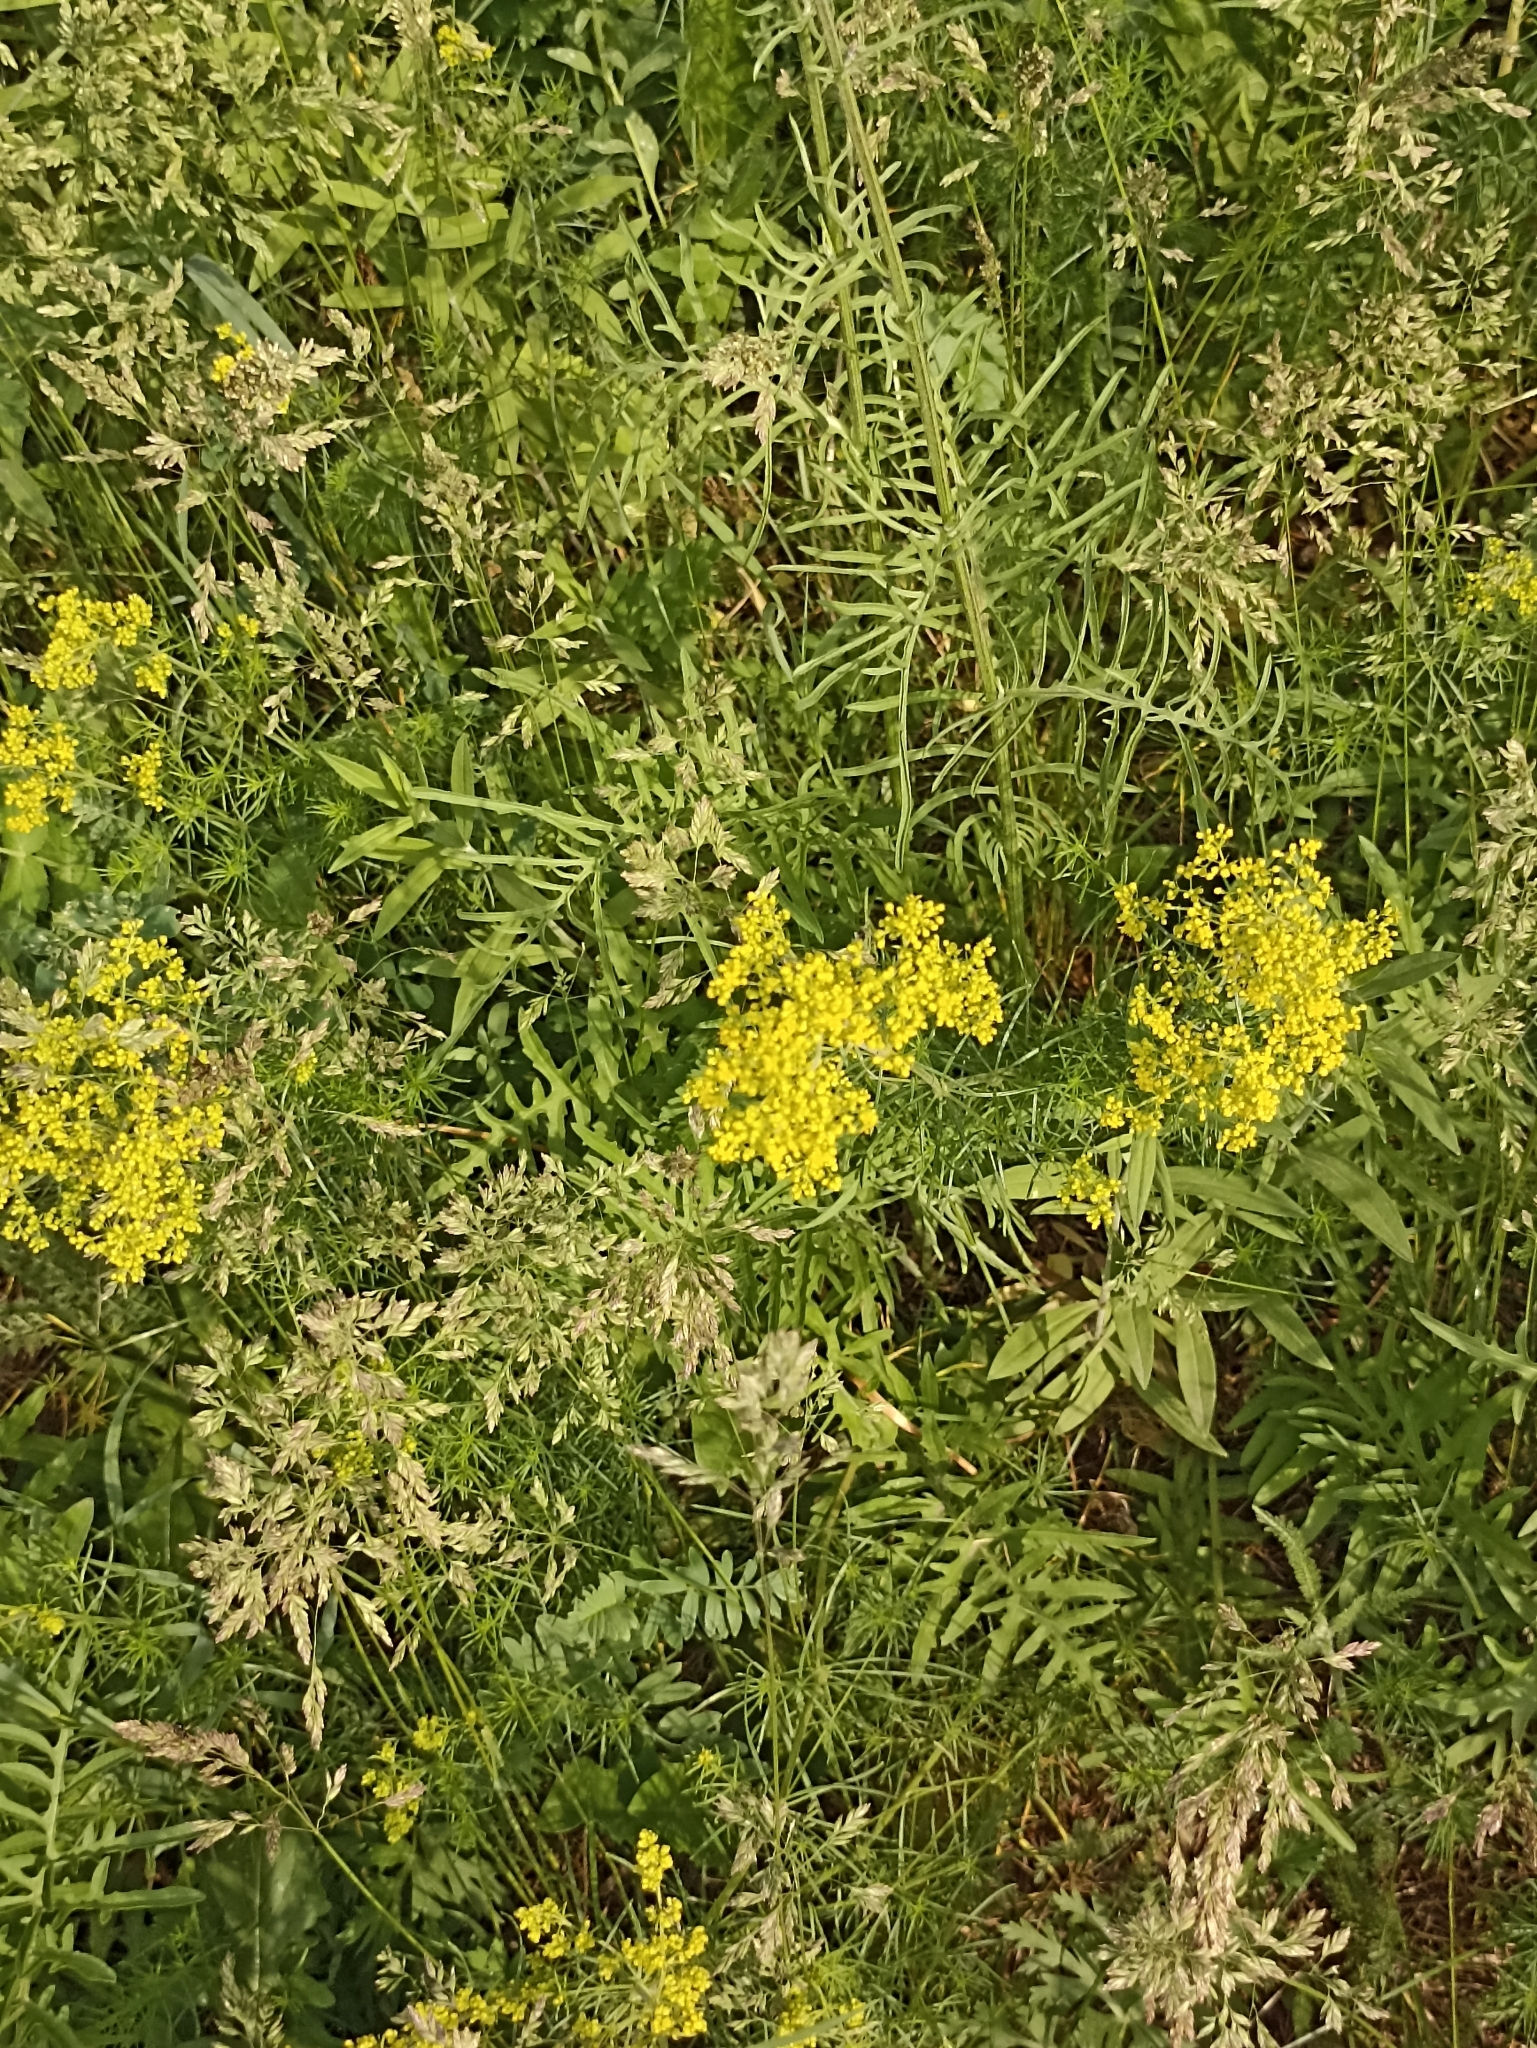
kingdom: Plantae
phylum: Tracheophyta
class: Magnoliopsida
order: Gentianales
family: Rubiaceae
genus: Galium
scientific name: Galium verum
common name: Lady's bedstraw
